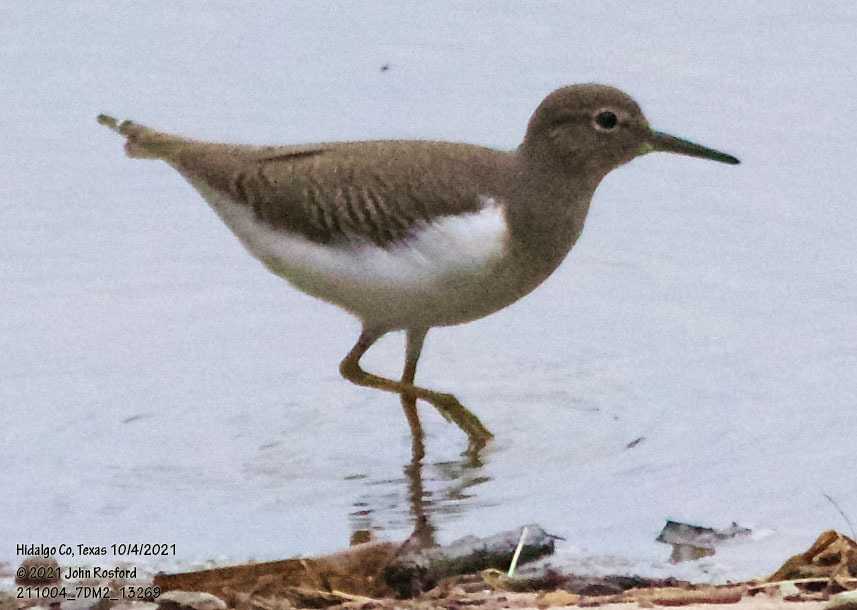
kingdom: Animalia
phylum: Chordata
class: Aves
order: Charadriiformes
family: Scolopacidae
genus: Actitis
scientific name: Actitis macularius
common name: Spotted sandpiper
